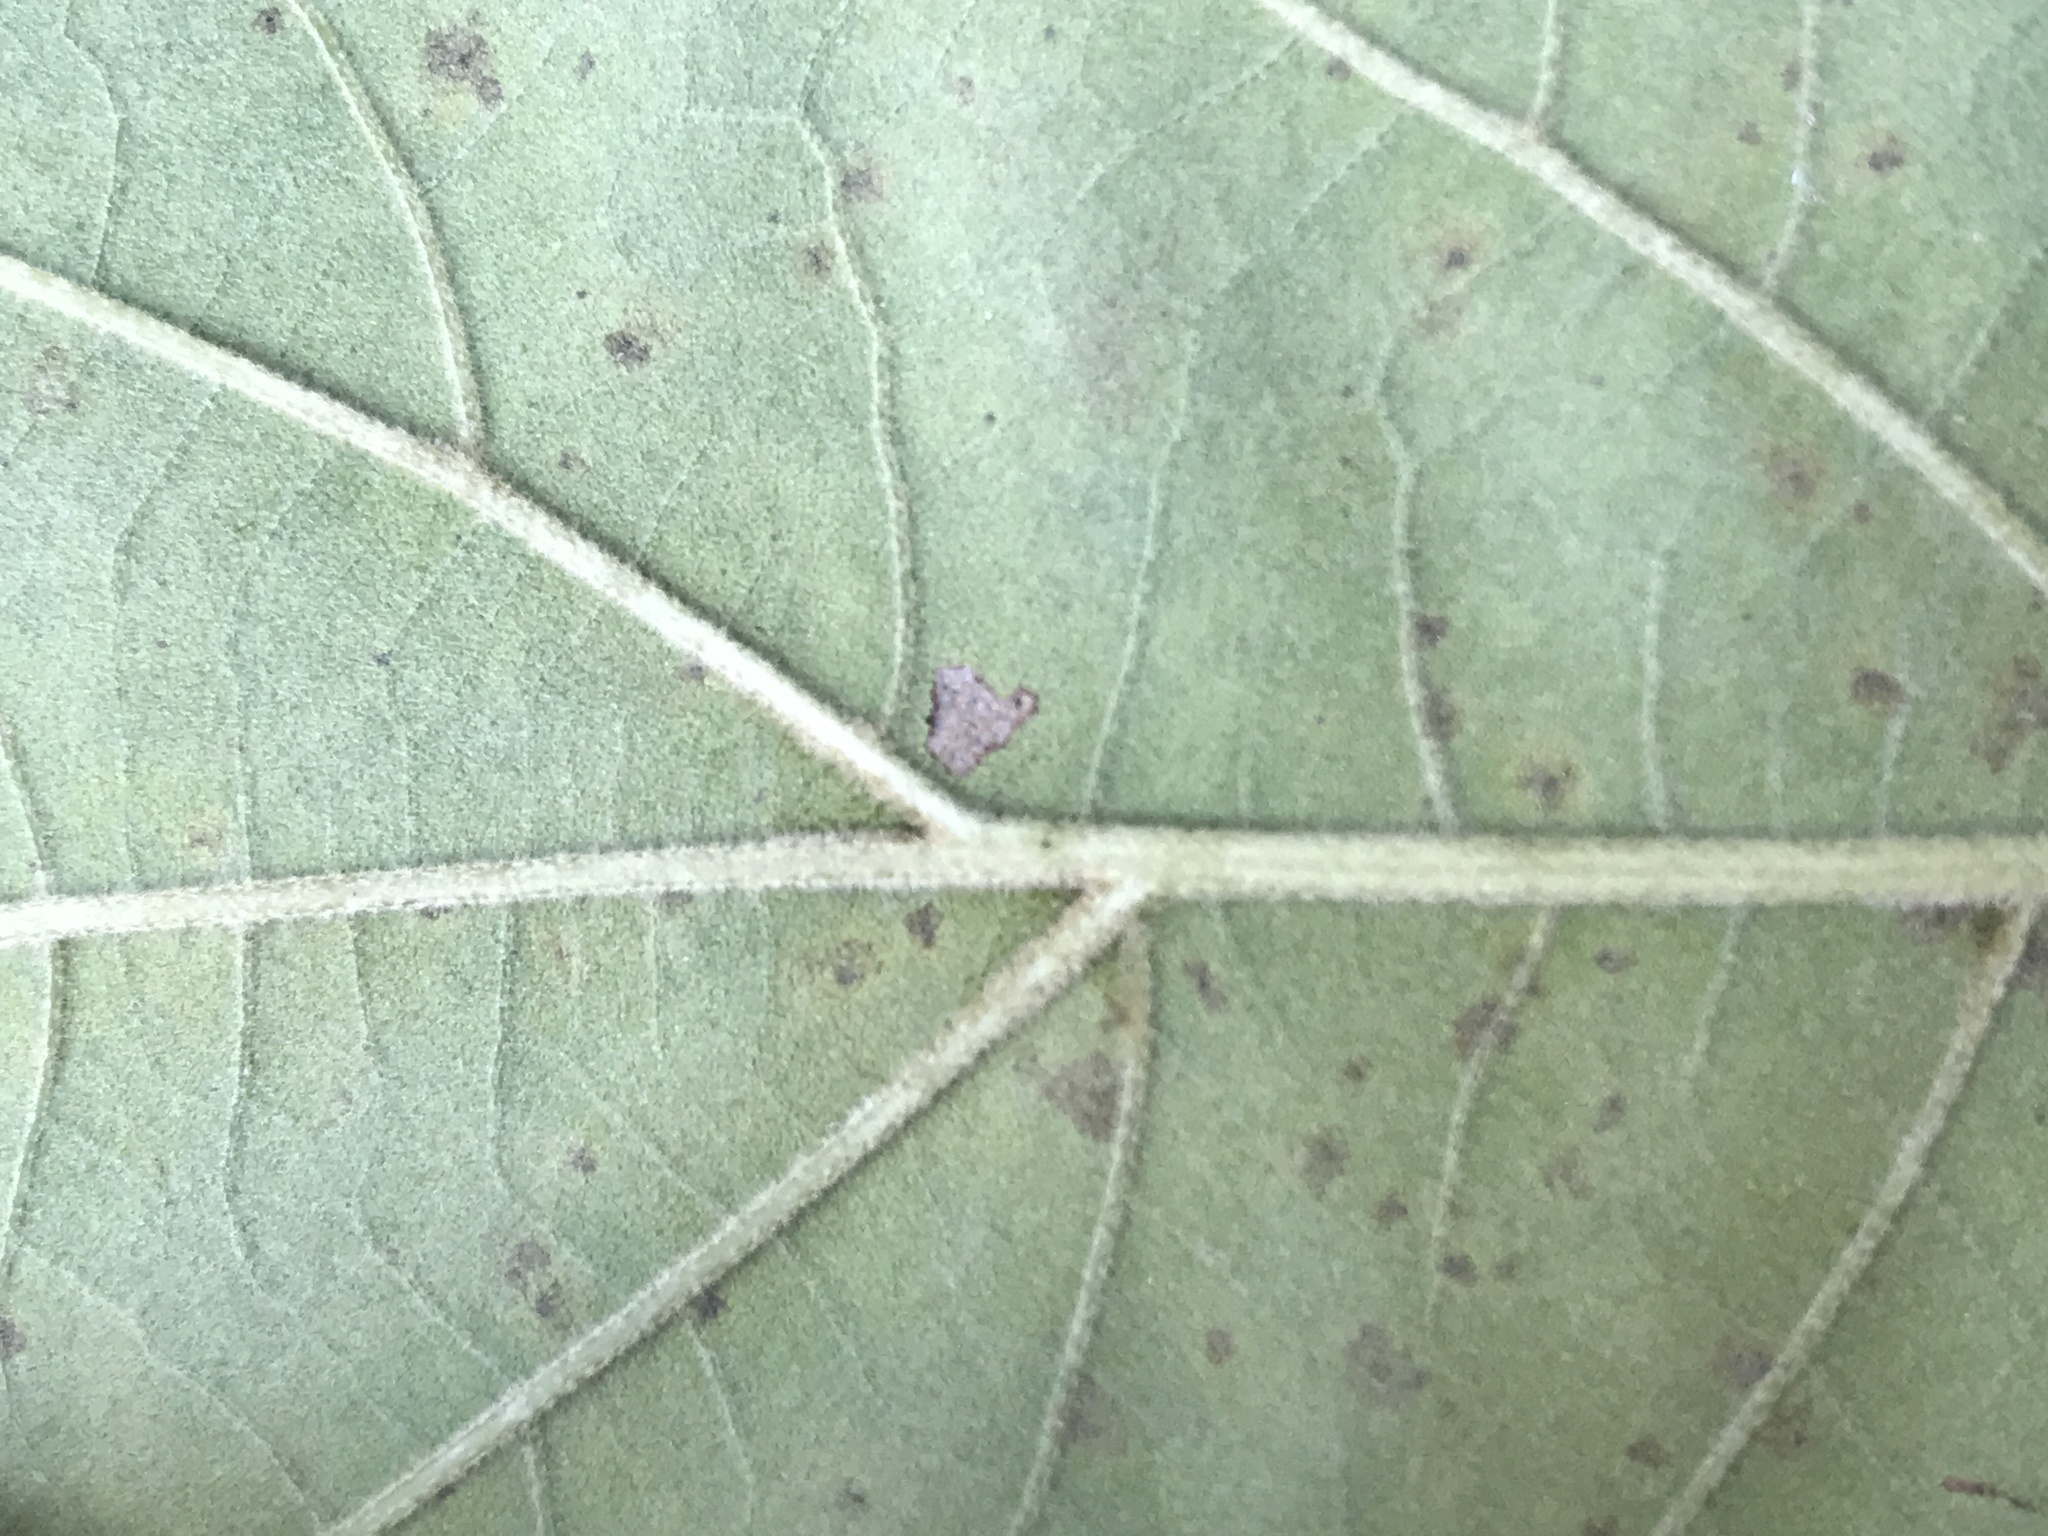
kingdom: Plantae
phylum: Tracheophyta
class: Magnoliopsida
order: Fagales
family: Fagaceae
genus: Quercus
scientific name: Quercus falcata
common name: Southern red oak
